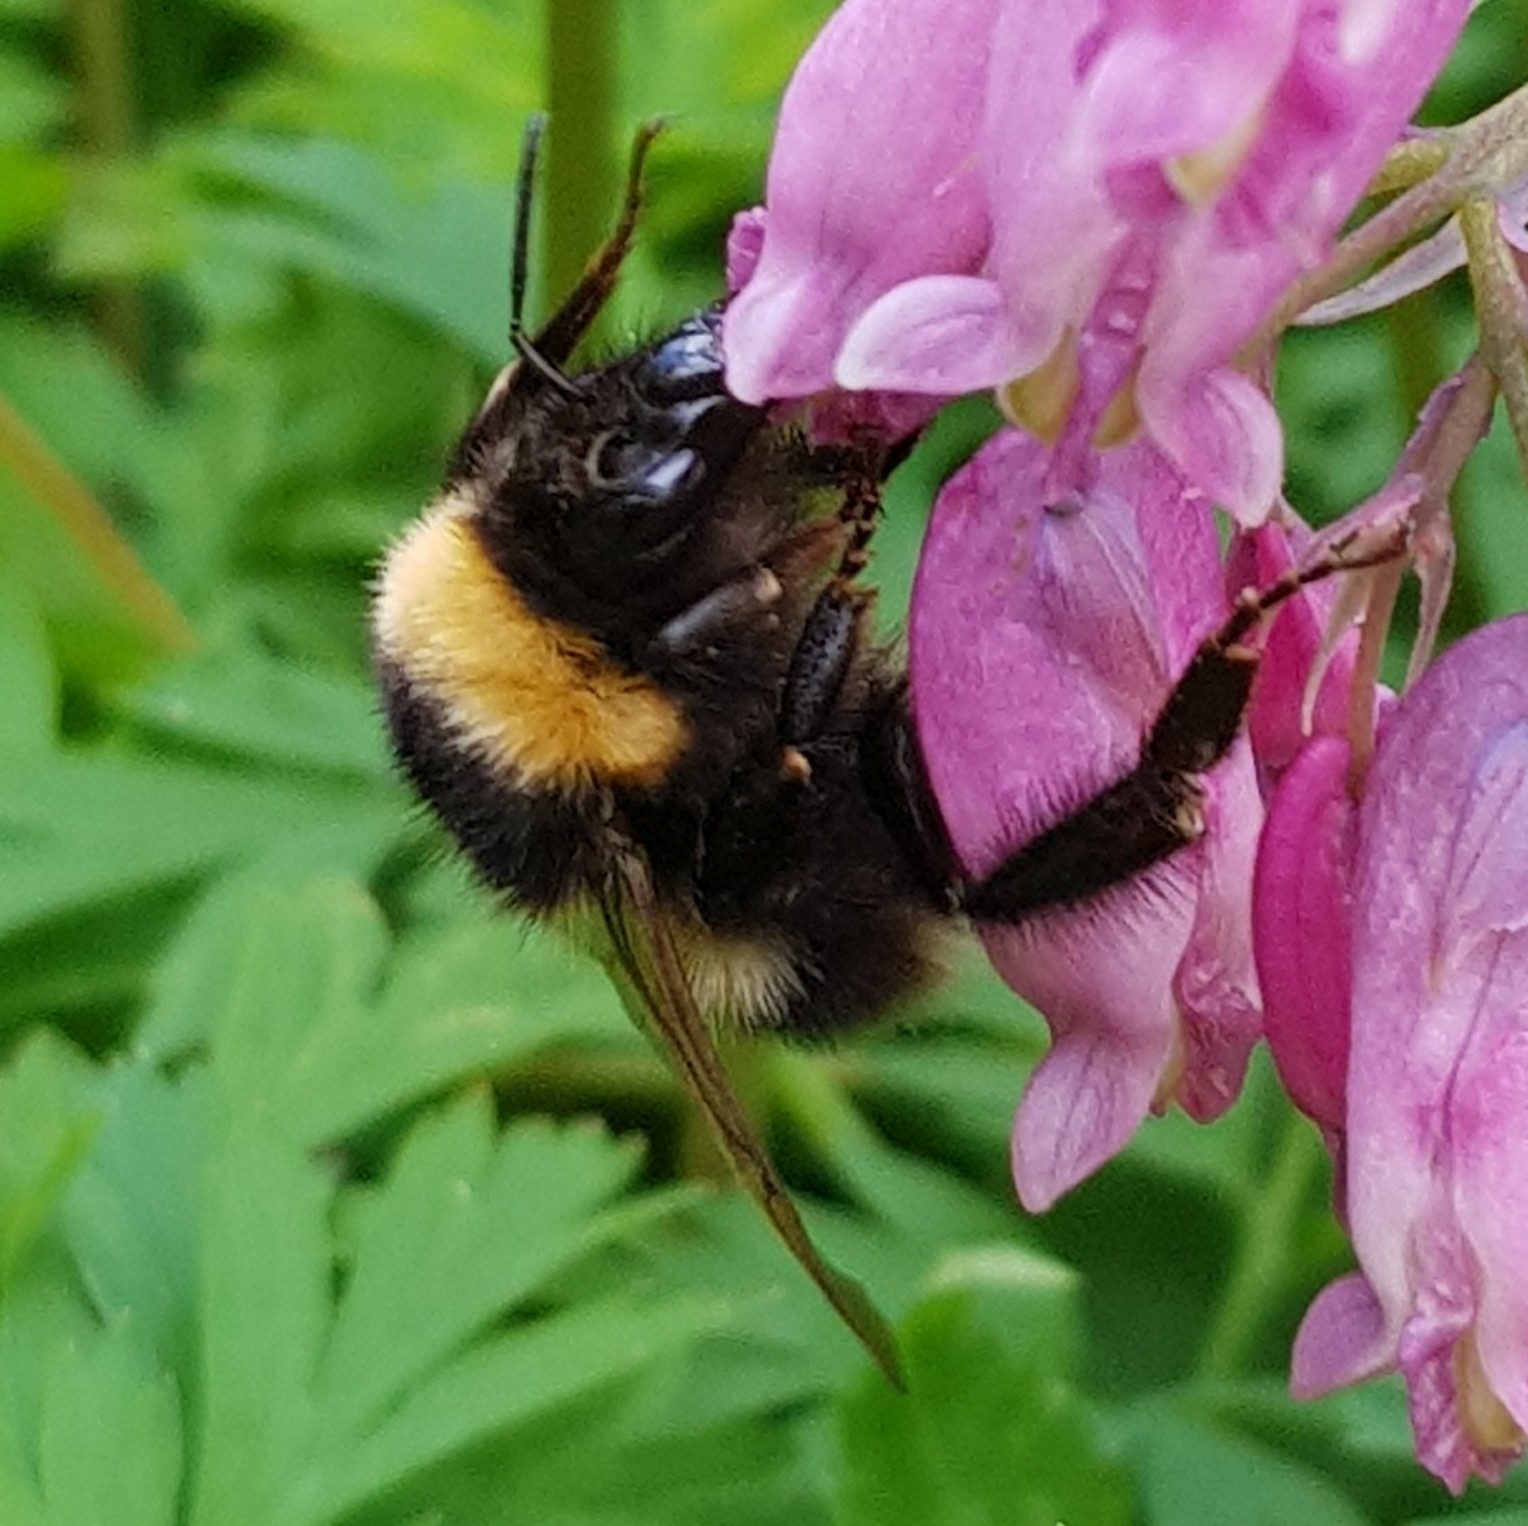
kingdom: Animalia
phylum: Arthropoda
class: Insecta
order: Hymenoptera
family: Apidae
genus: Bombus
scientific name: Bombus hortorum
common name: Garden bumblebee
